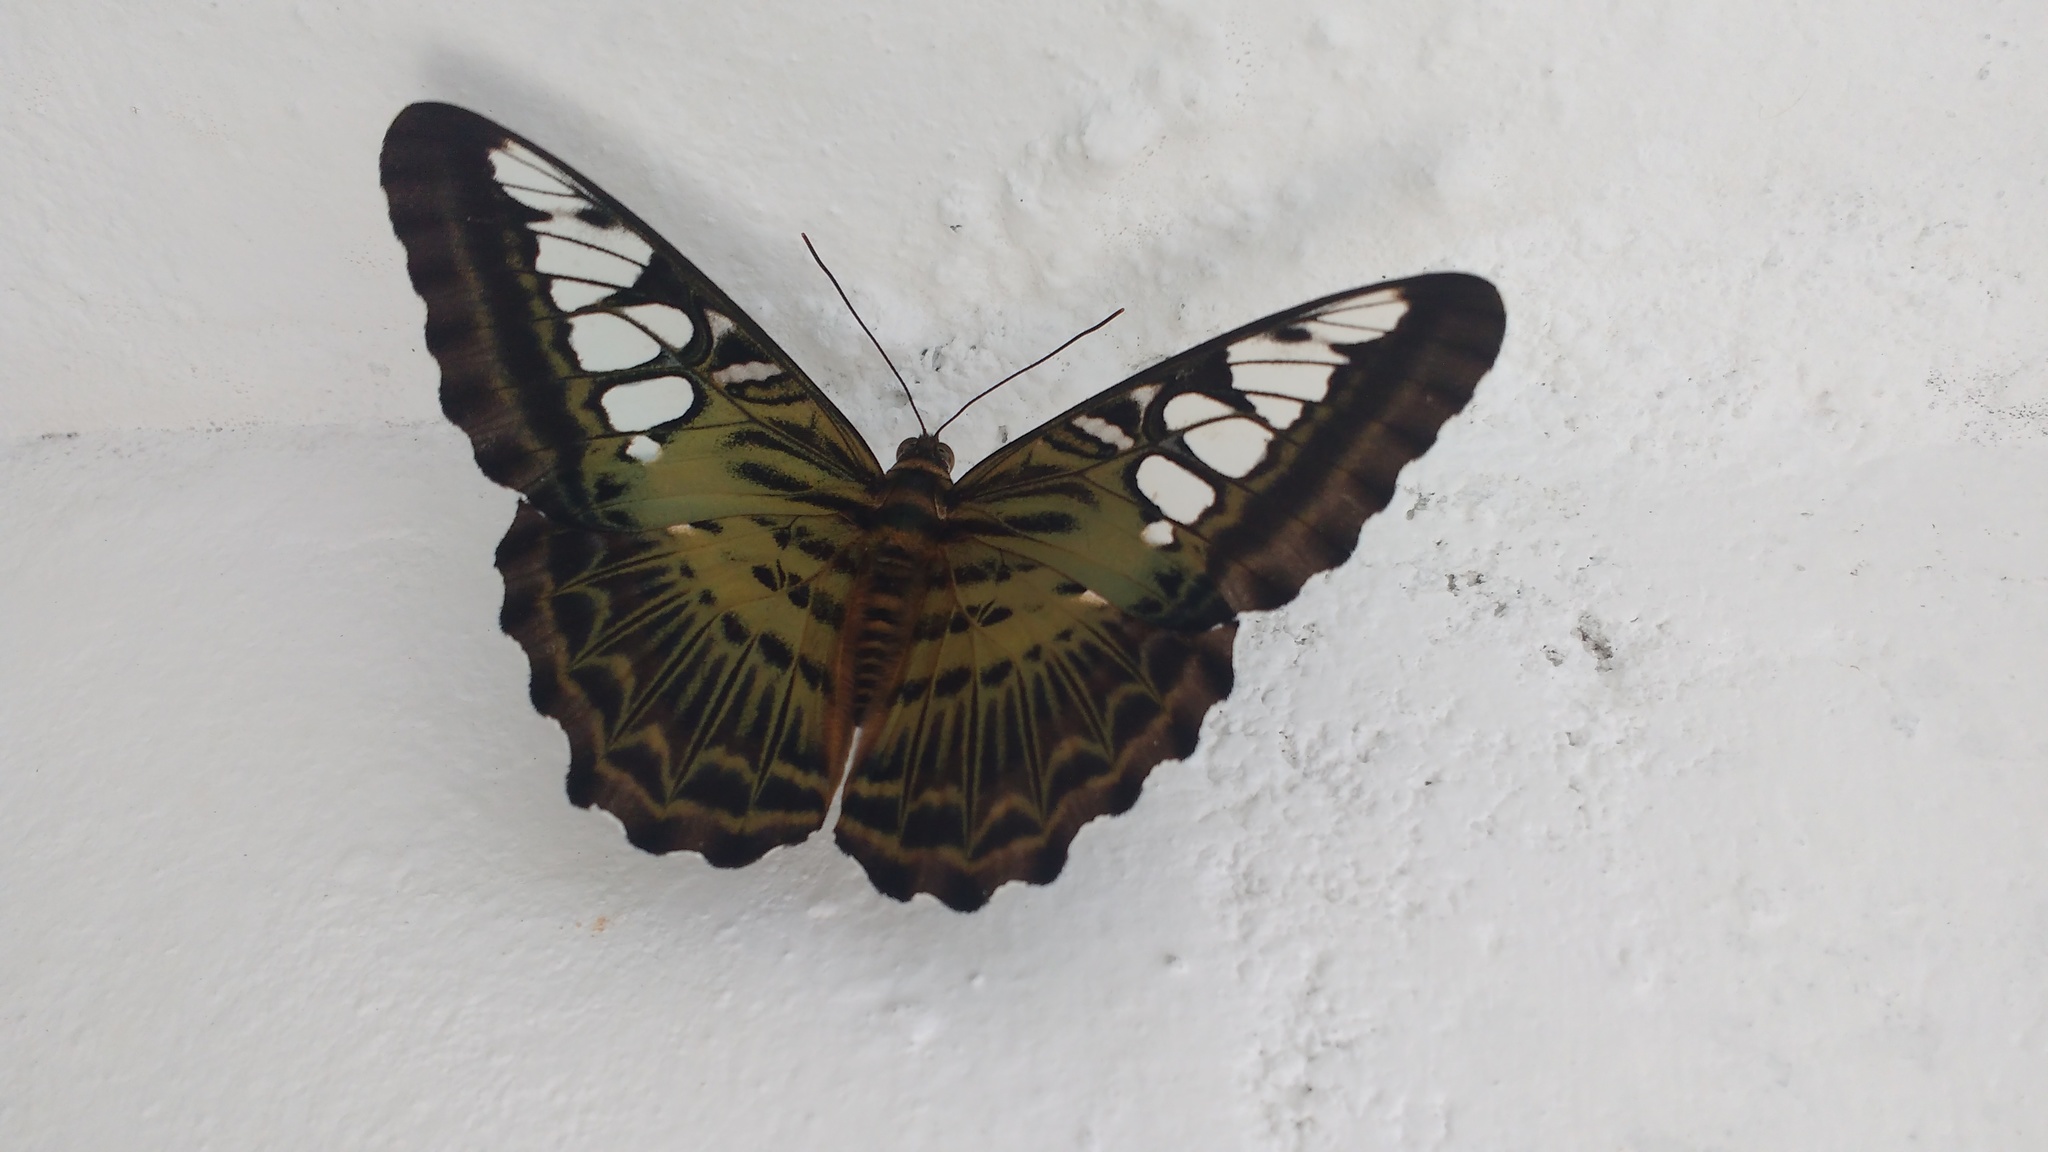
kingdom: Animalia
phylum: Arthropoda
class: Insecta
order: Lepidoptera
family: Nymphalidae
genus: Kallima
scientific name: Kallima sylvia
